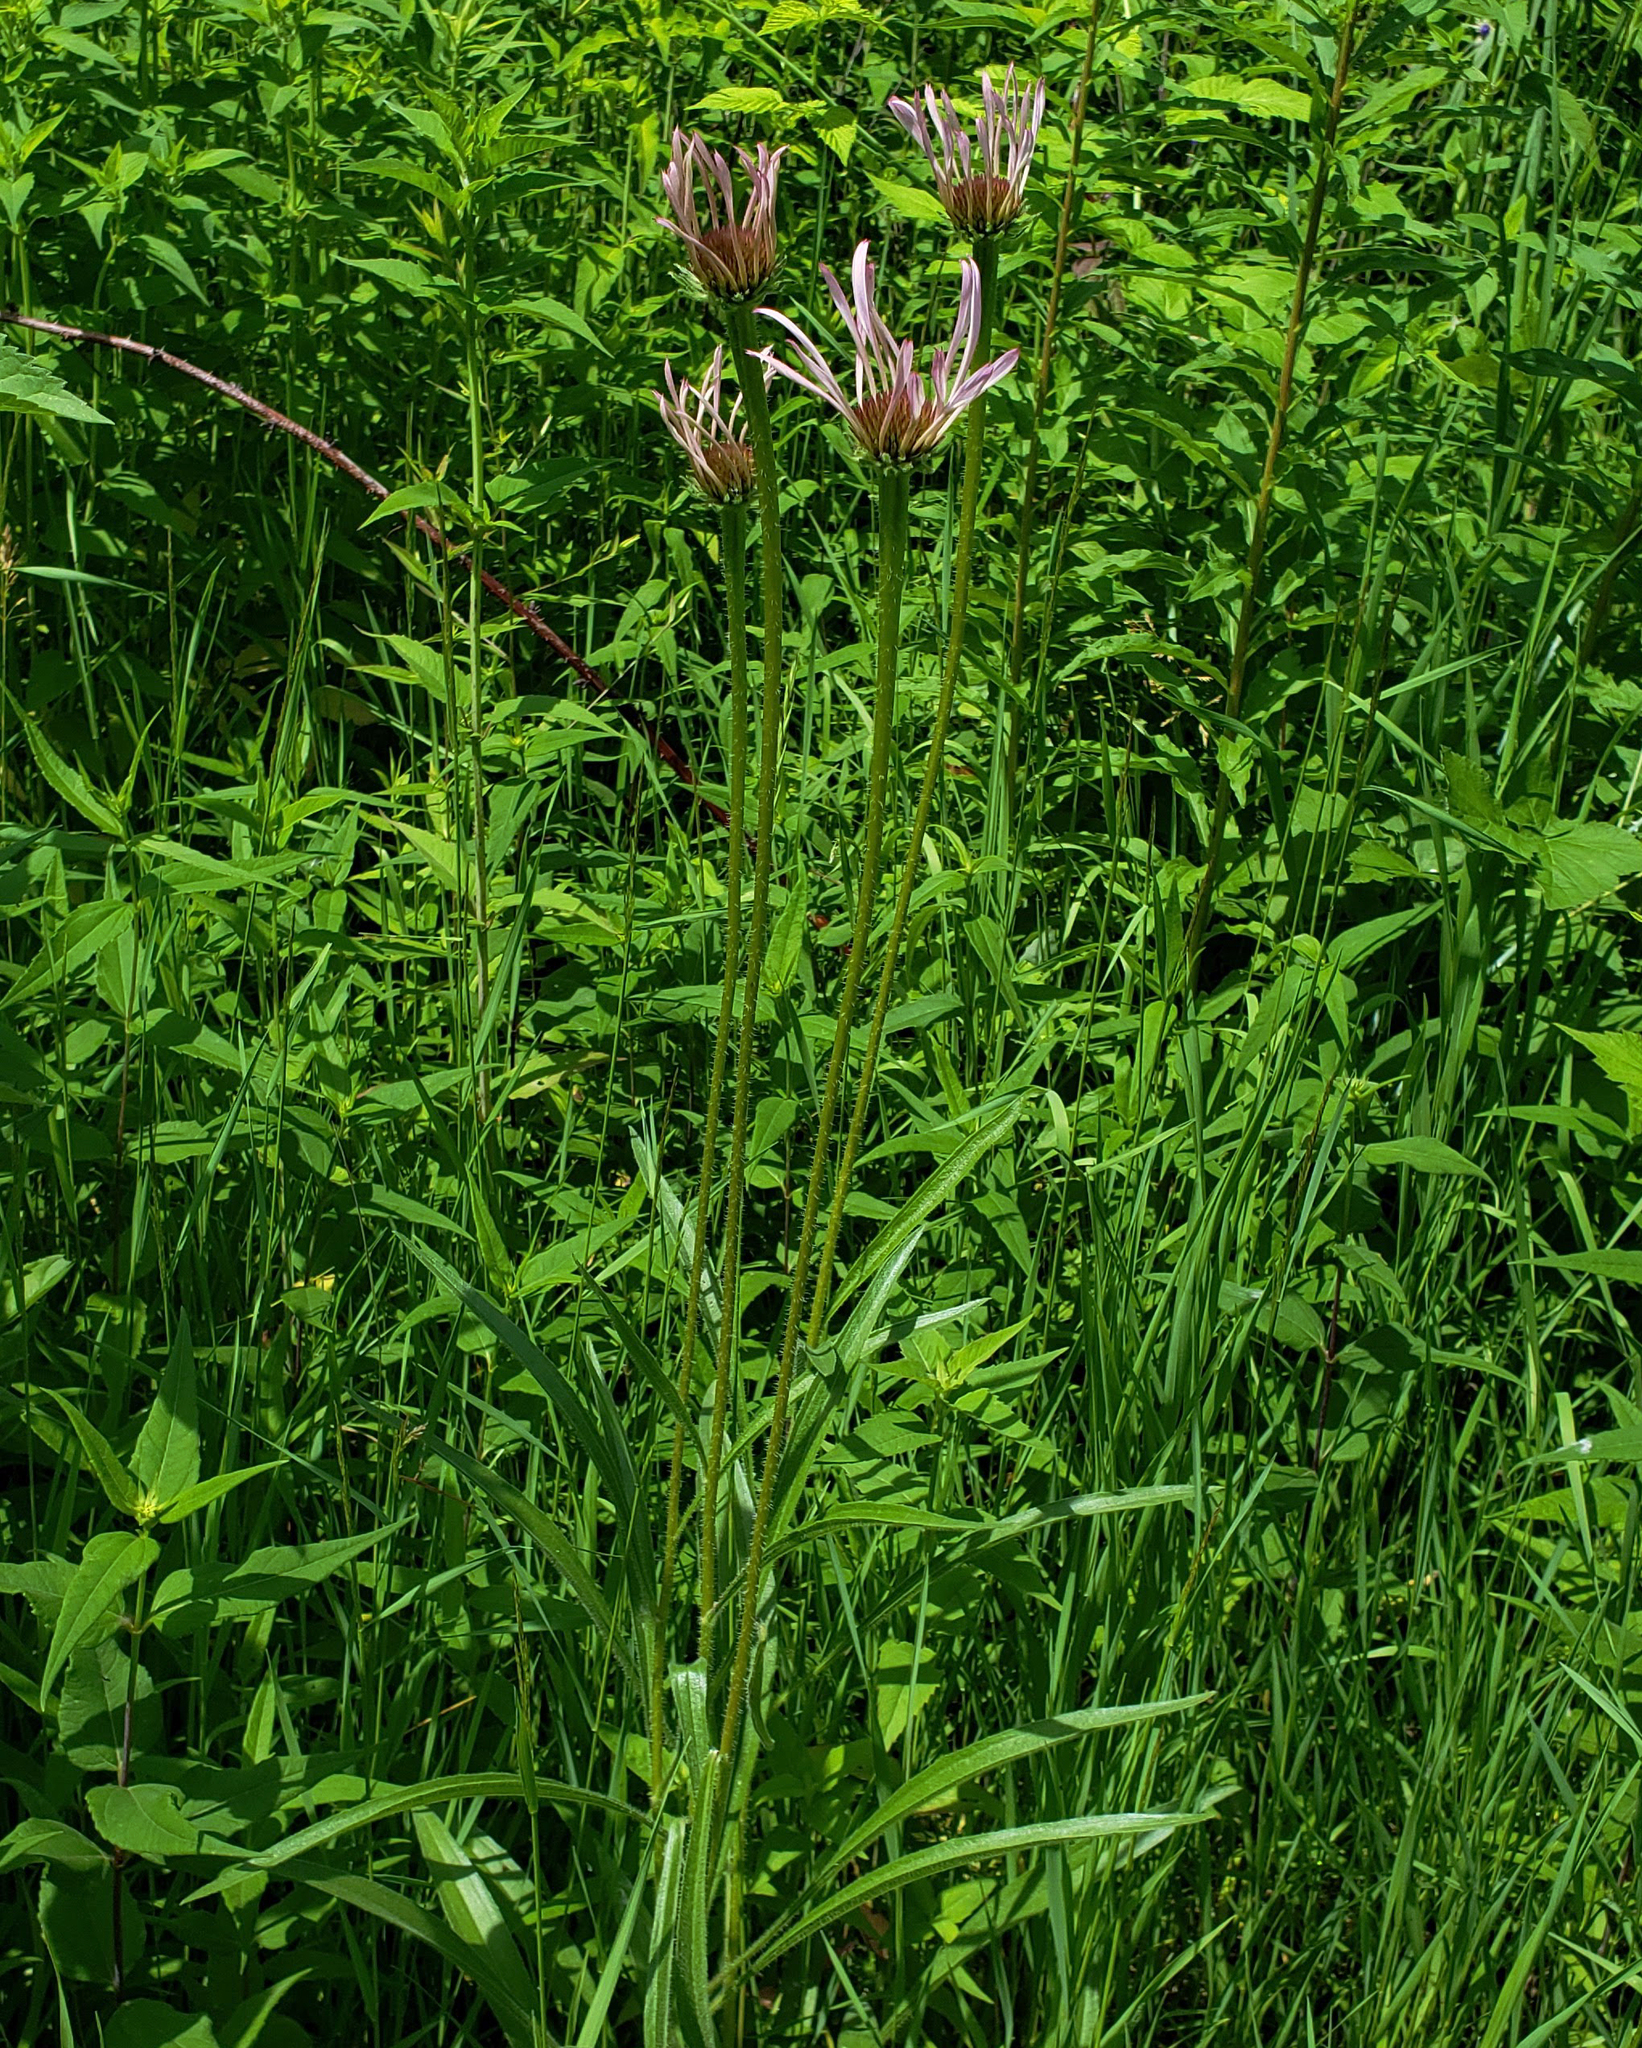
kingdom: Plantae
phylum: Tracheophyta
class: Magnoliopsida
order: Asterales
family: Asteraceae
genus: Echinacea
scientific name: Echinacea pallida
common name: Pale echinacea
